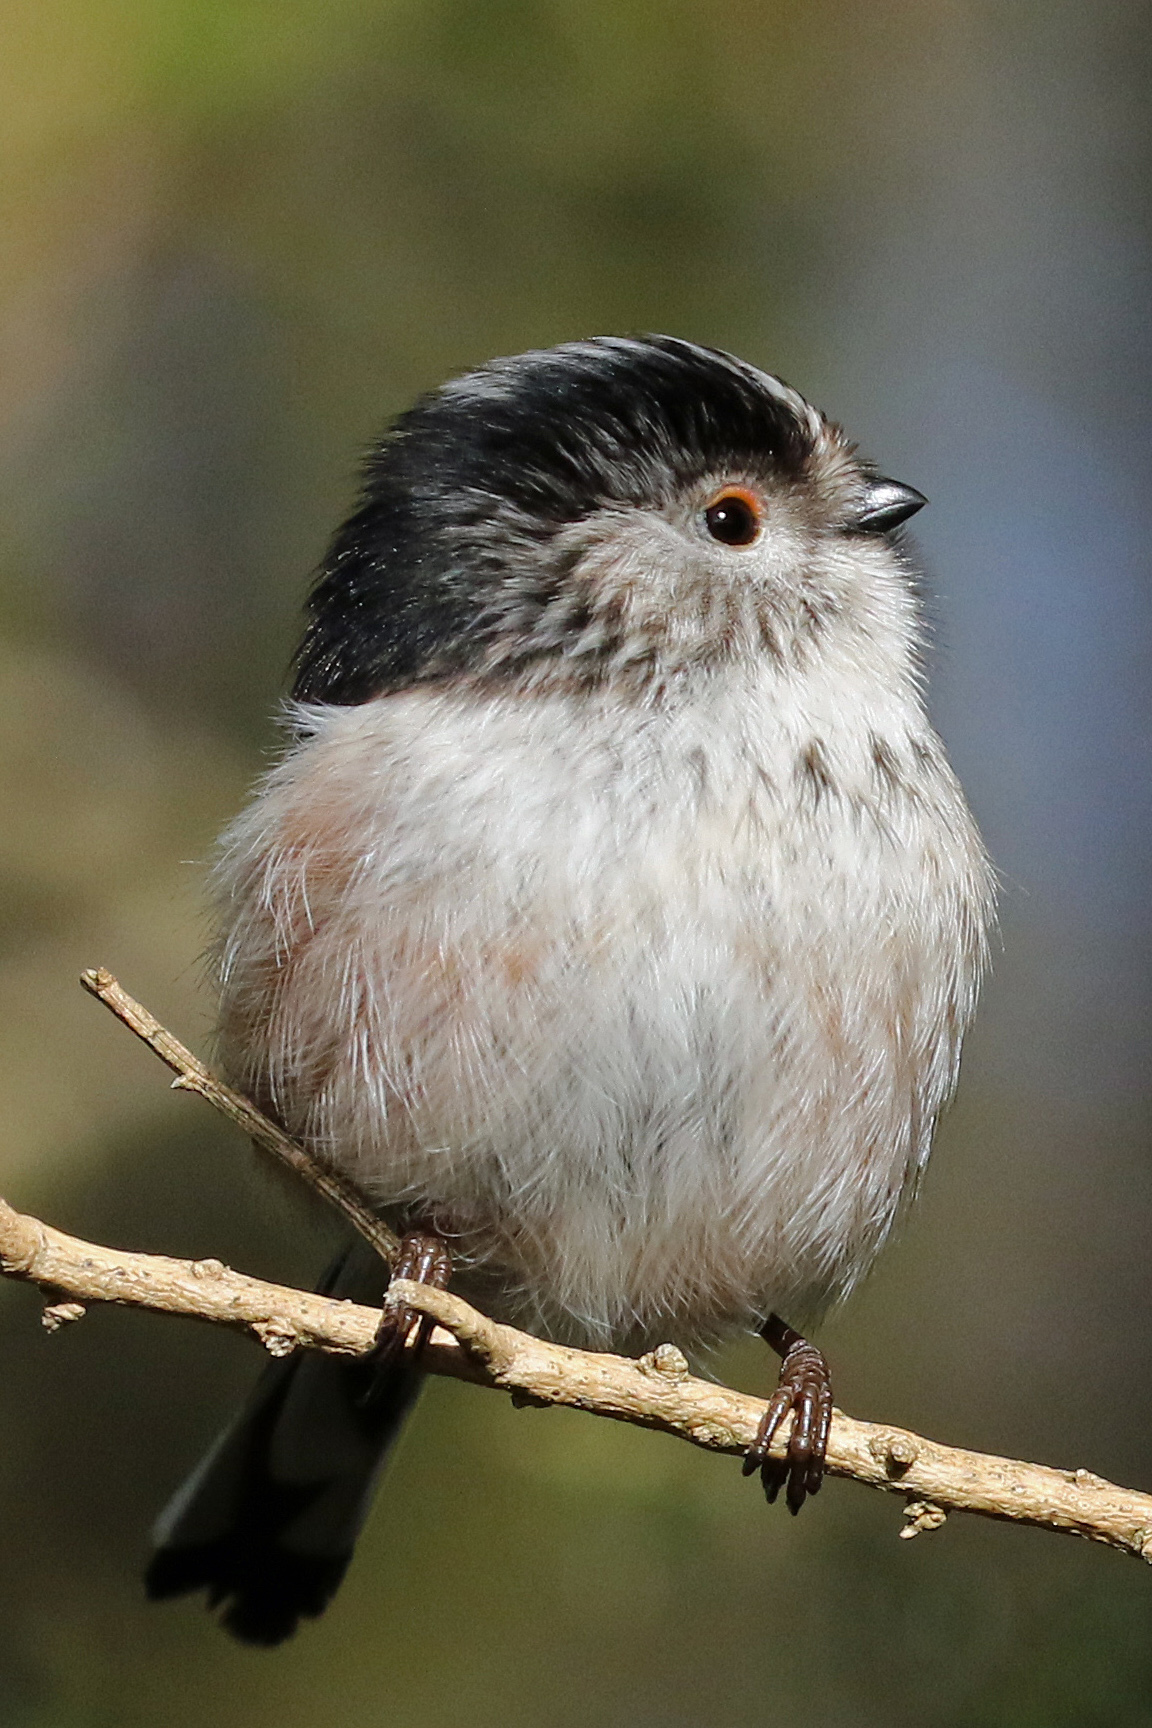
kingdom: Animalia
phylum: Chordata
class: Aves
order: Passeriformes
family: Aegithalidae
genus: Aegithalos
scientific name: Aegithalos caudatus
